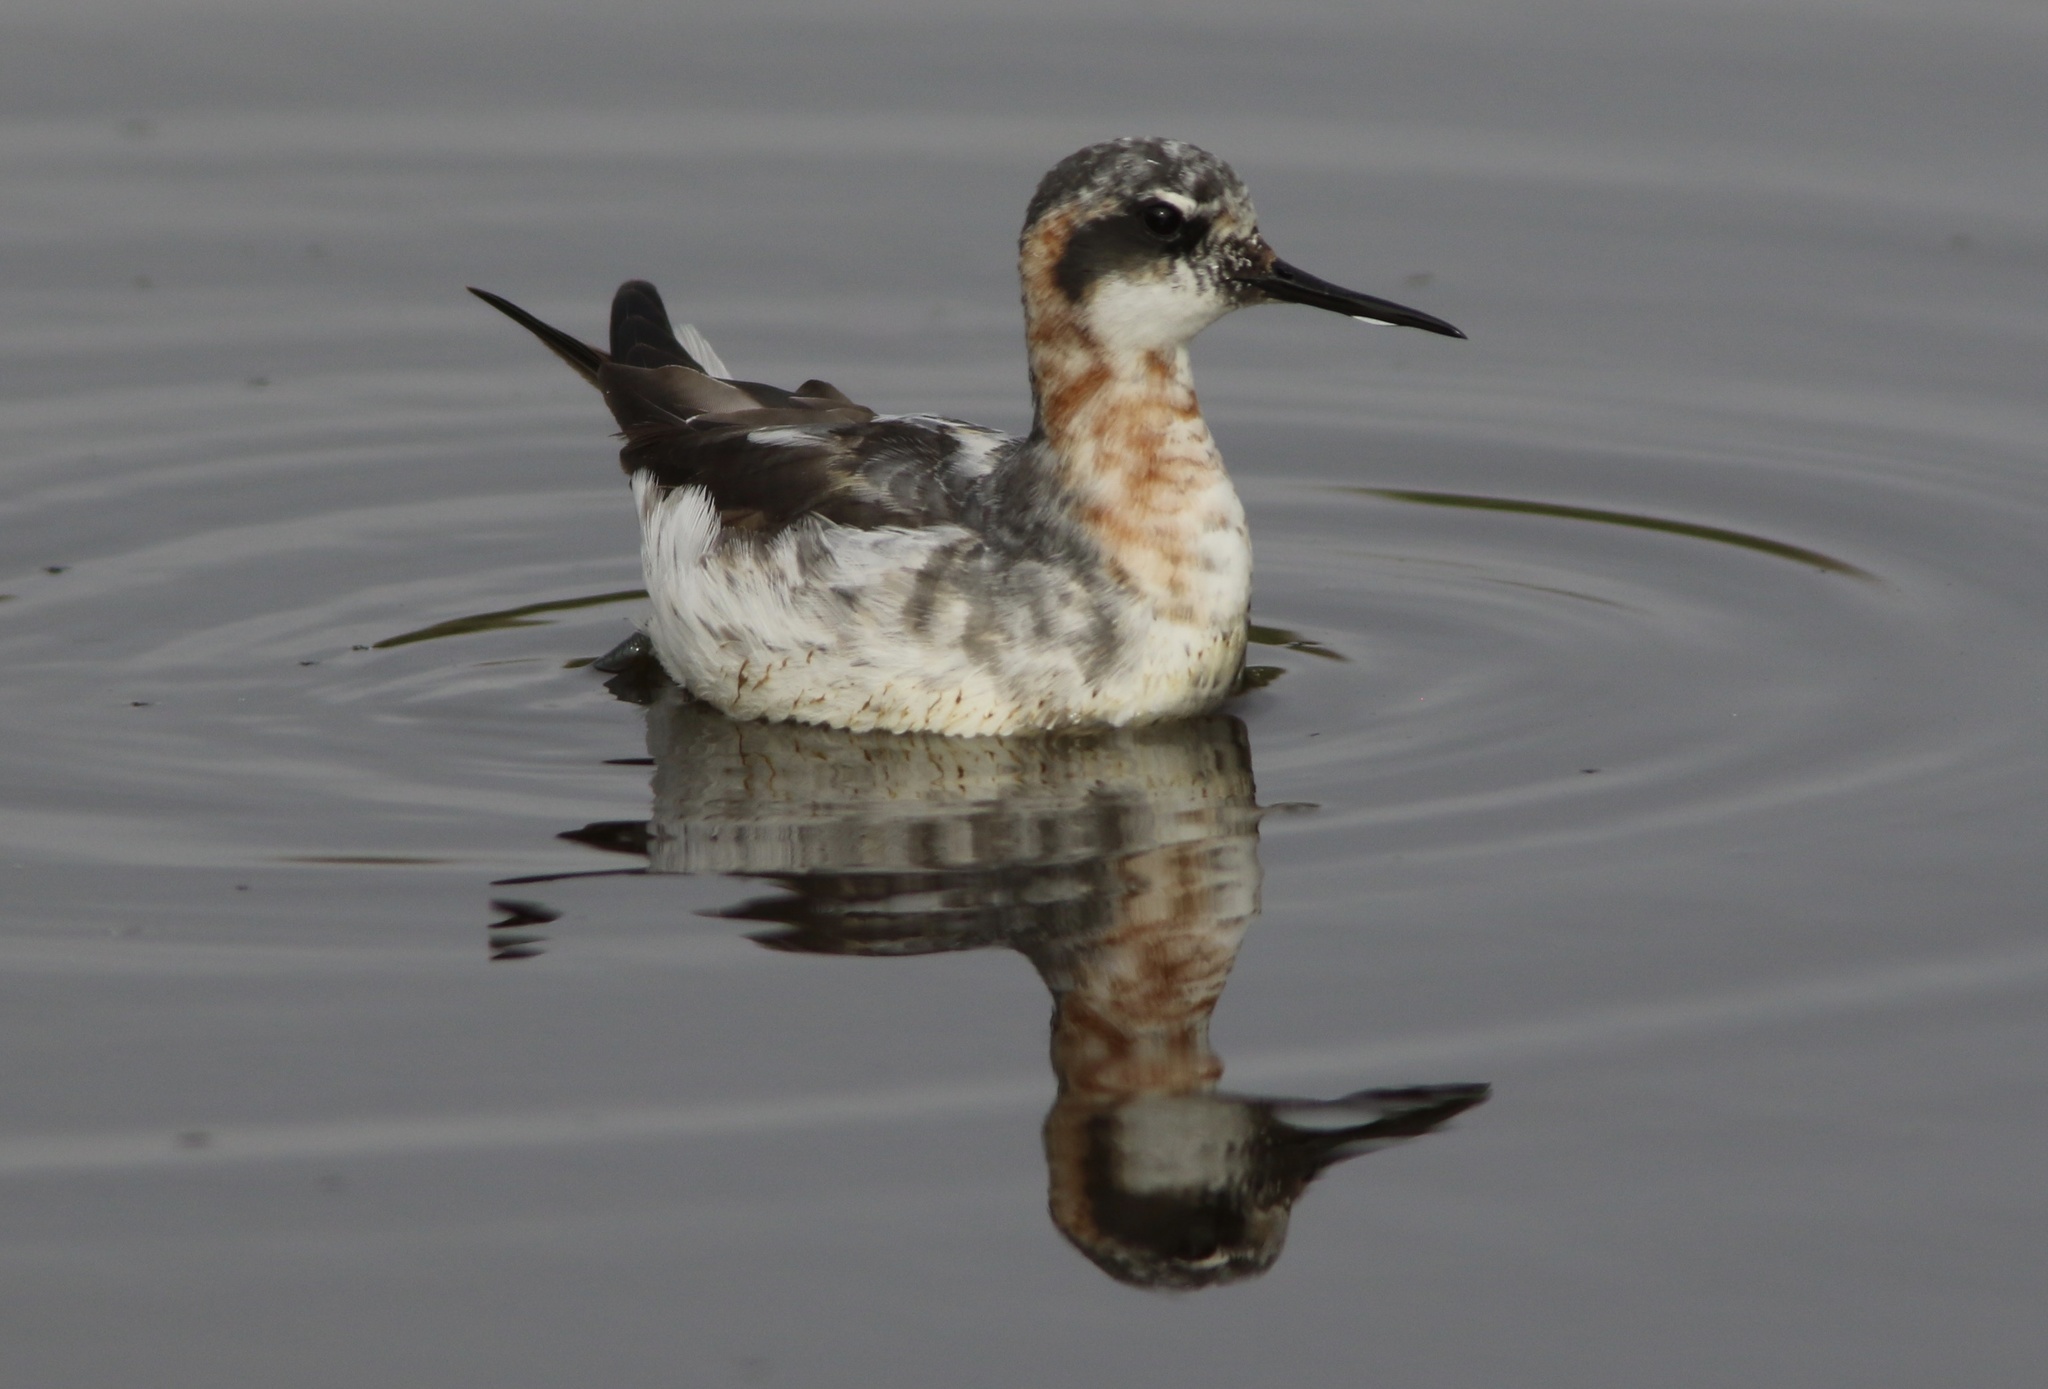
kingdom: Animalia
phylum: Chordata
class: Aves
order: Charadriiformes
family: Scolopacidae
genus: Phalaropus
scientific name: Phalaropus lobatus
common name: Red-necked phalarope
